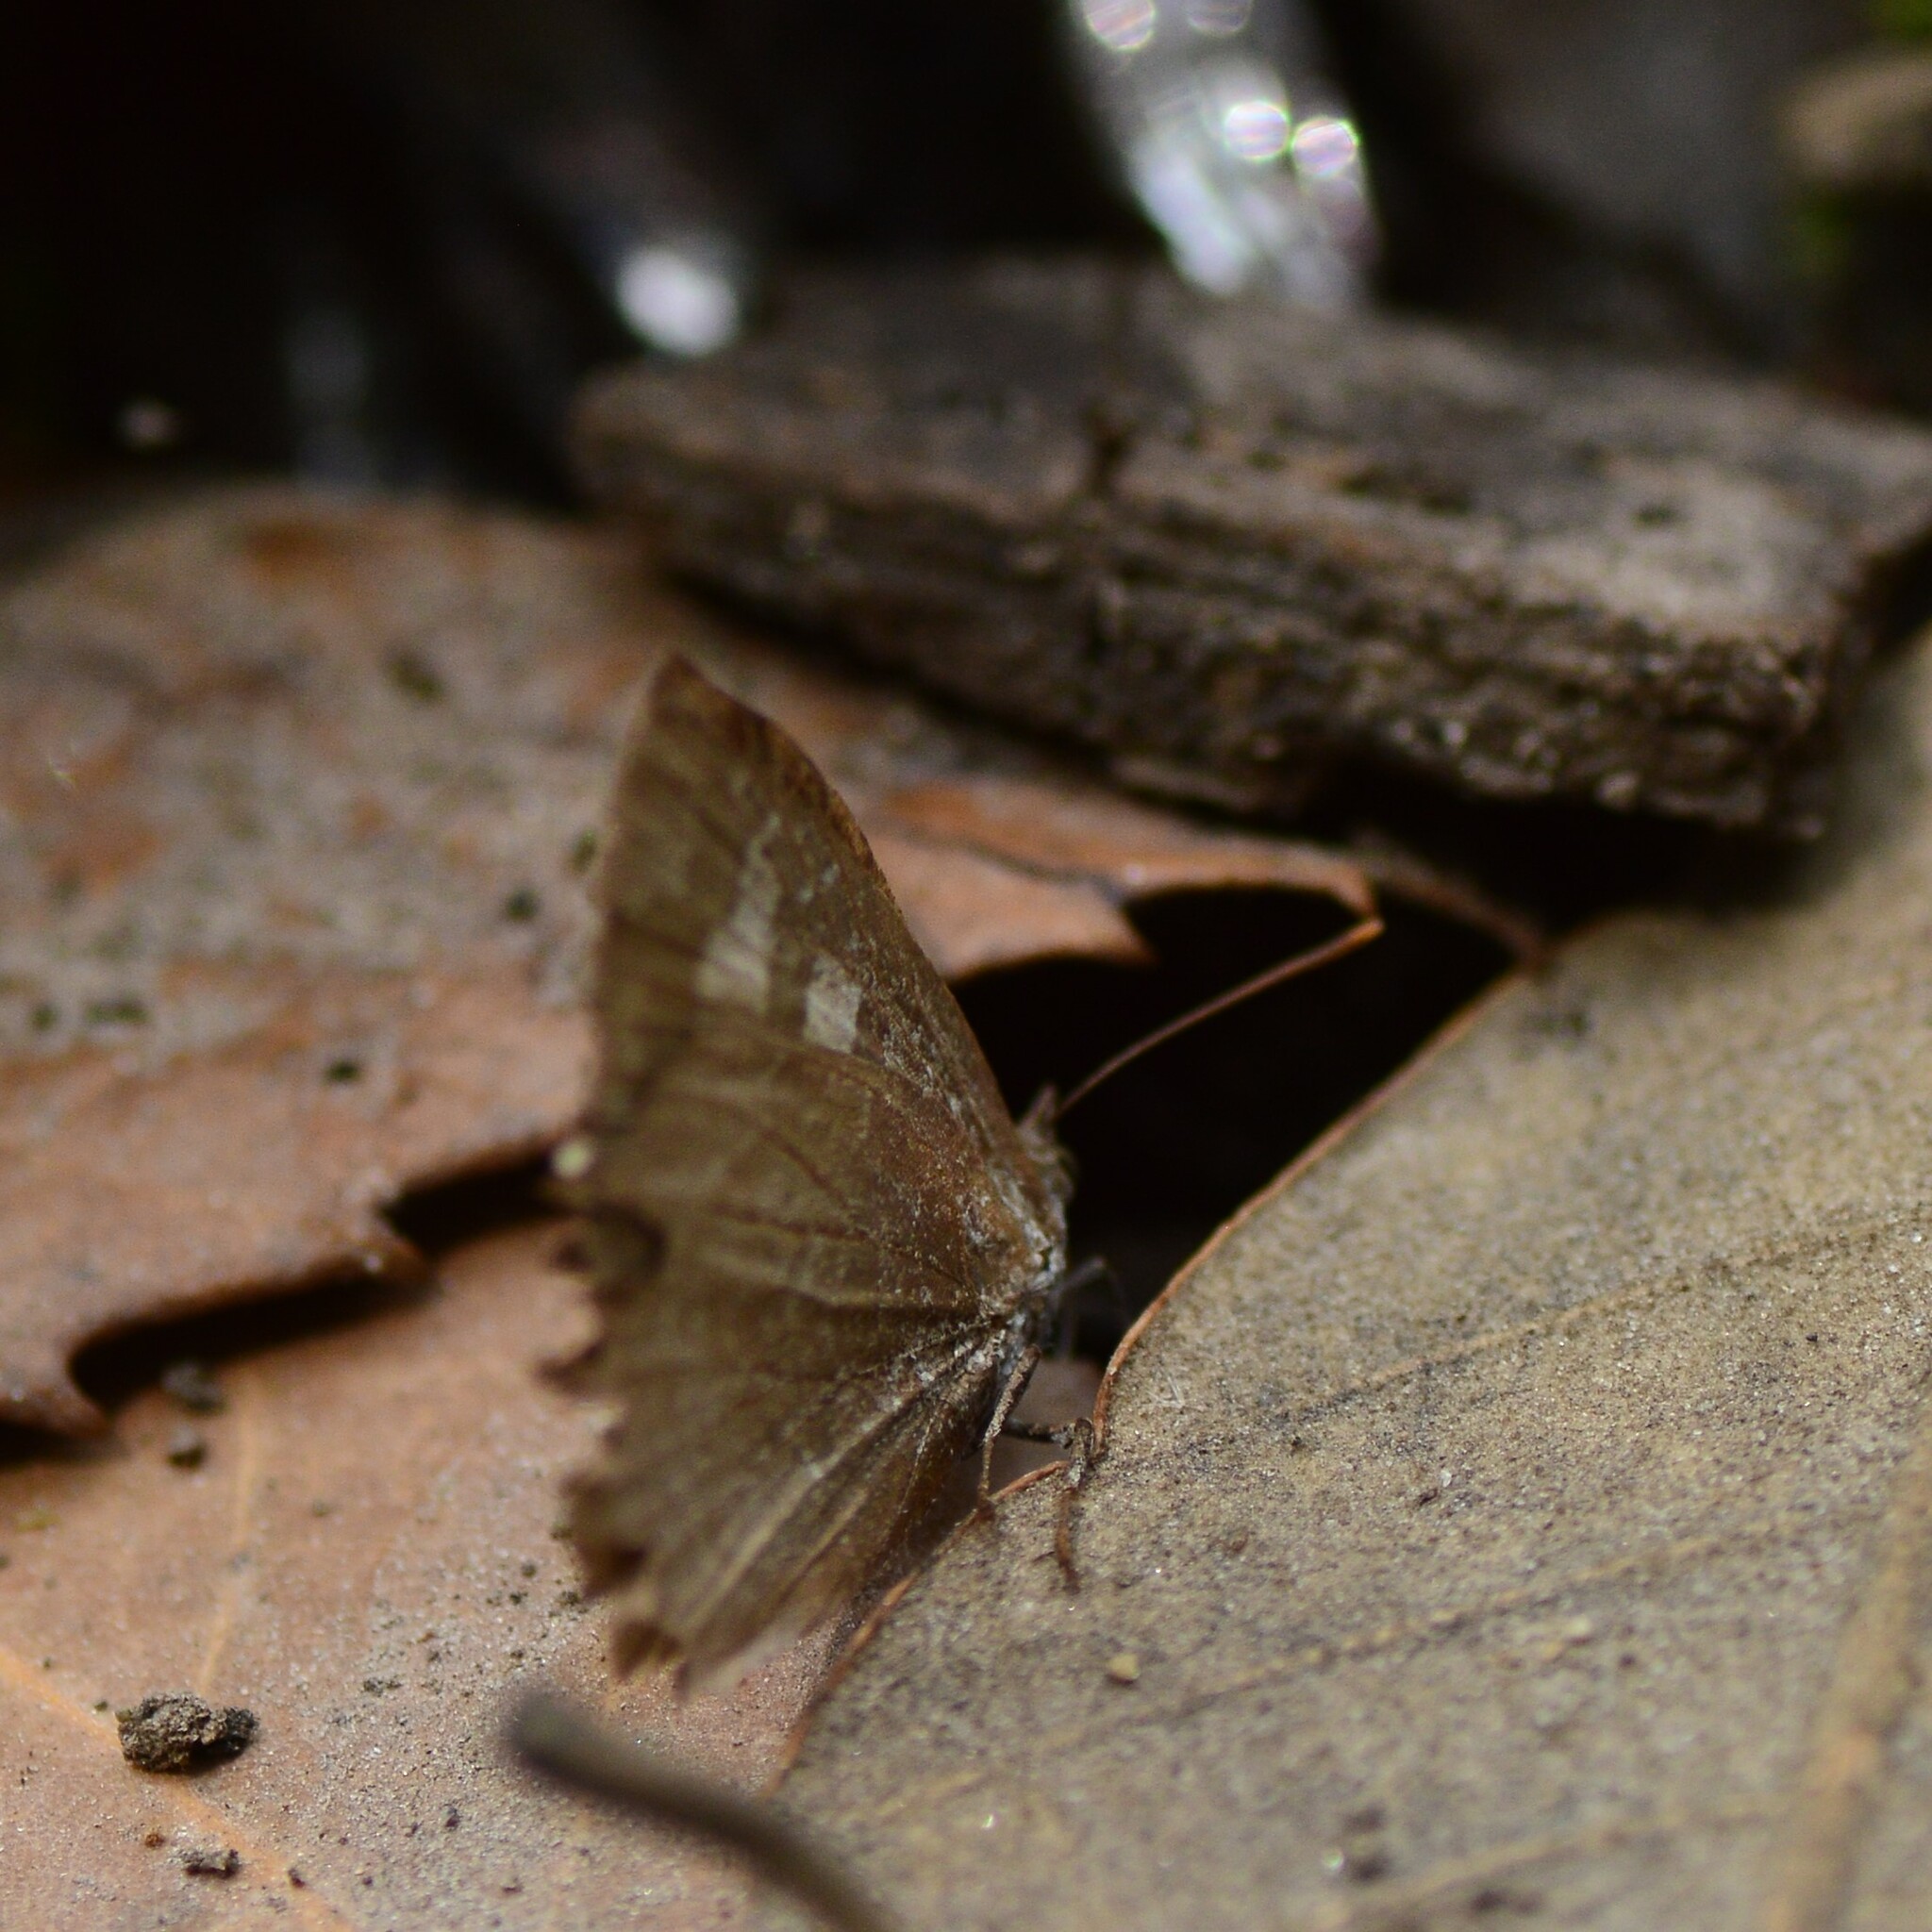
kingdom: Animalia
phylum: Arthropoda
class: Insecta
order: Lepidoptera
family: Lycaenidae
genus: Arhopala
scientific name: Arhopala ganesa
